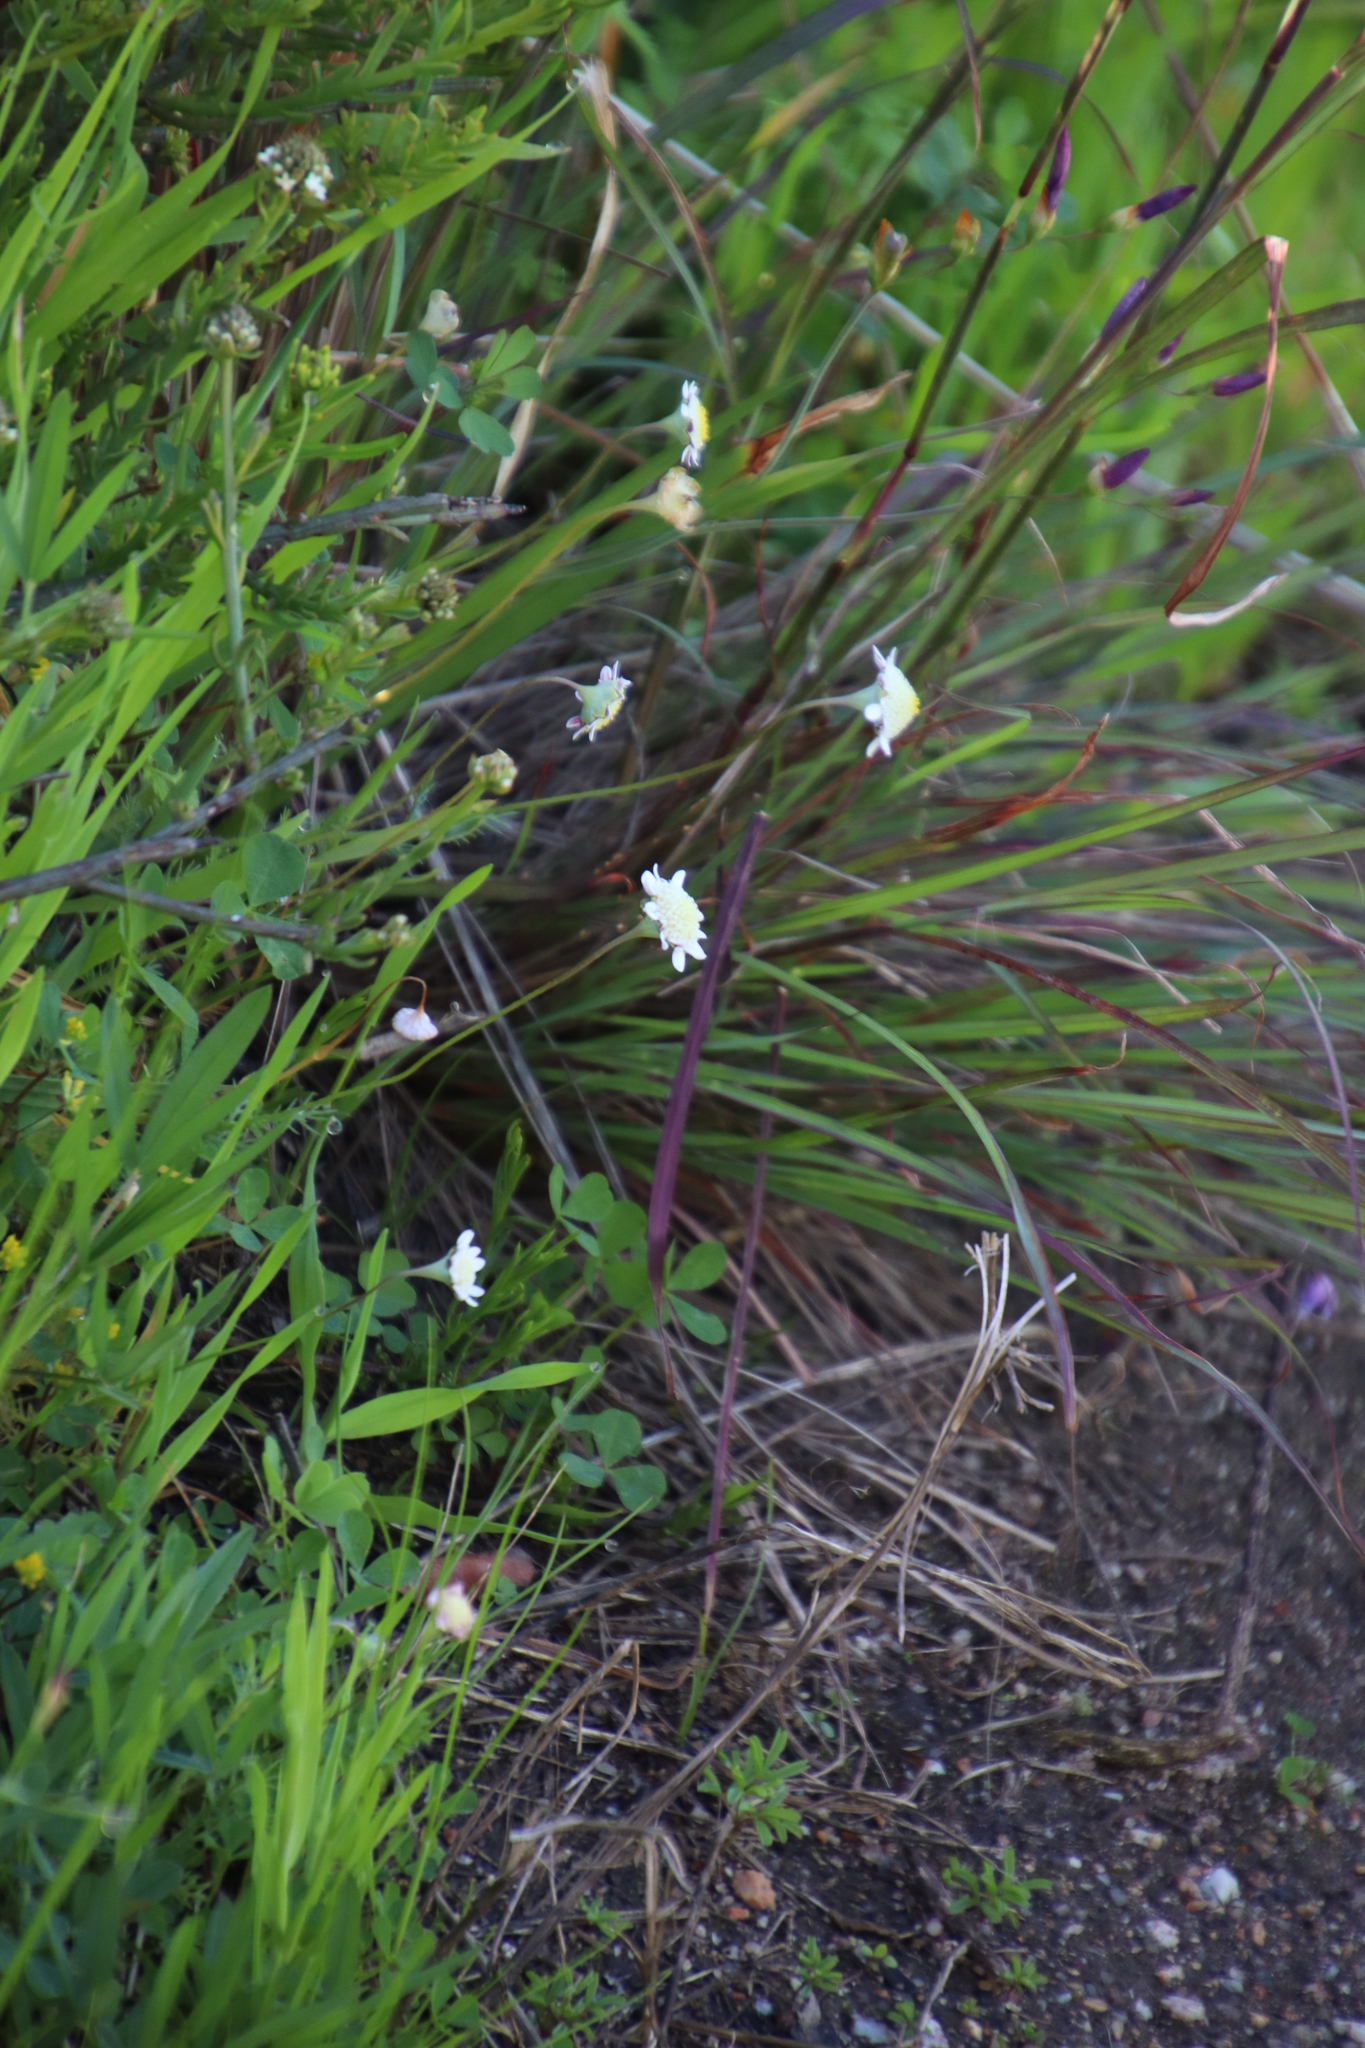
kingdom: Plantae
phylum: Tracheophyta
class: Magnoliopsida
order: Asterales
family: Asteraceae
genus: Cotula
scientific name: Cotula turbinata
